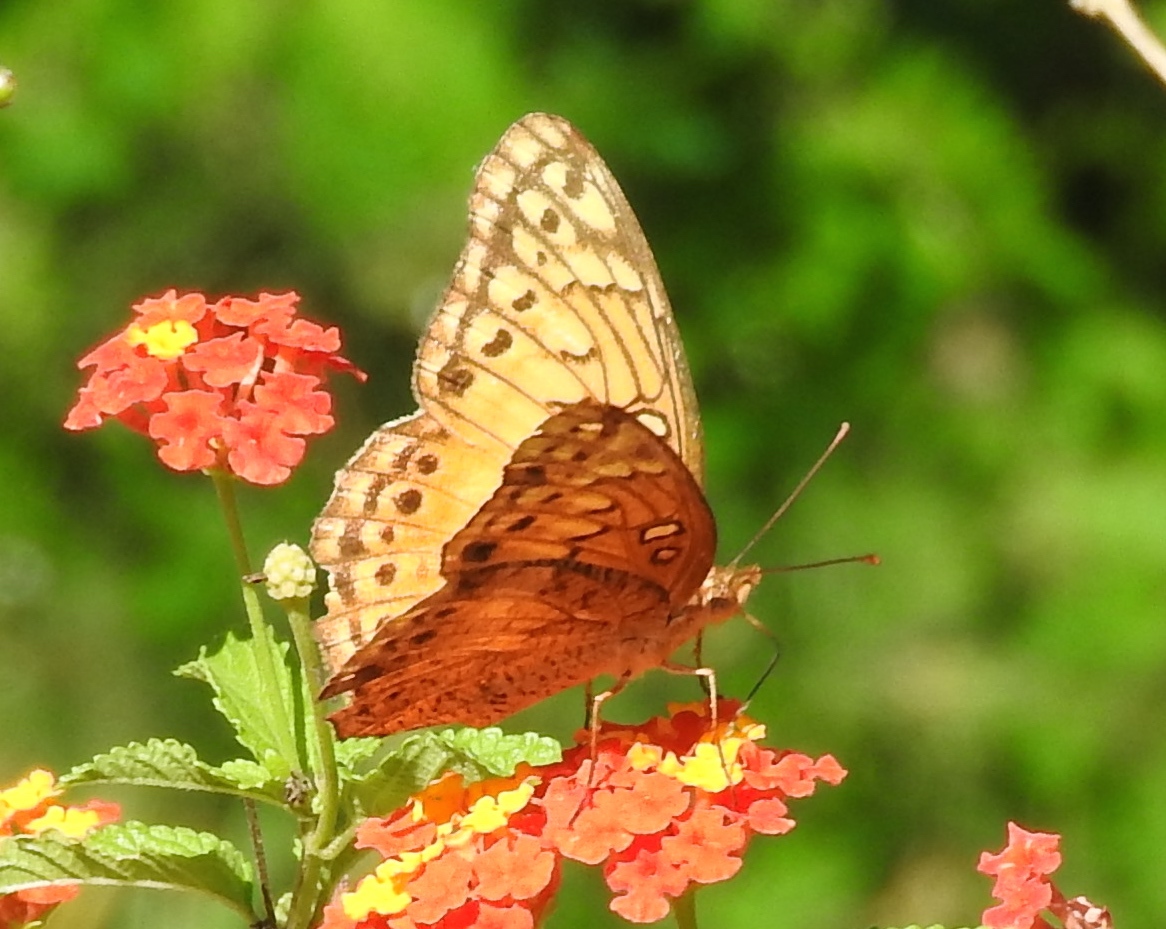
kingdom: Animalia
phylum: Arthropoda
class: Insecta
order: Lepidoptera
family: Nymphalidae
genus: Euptoieta
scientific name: Euptoieta hegesia
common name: Mexican fritillary
